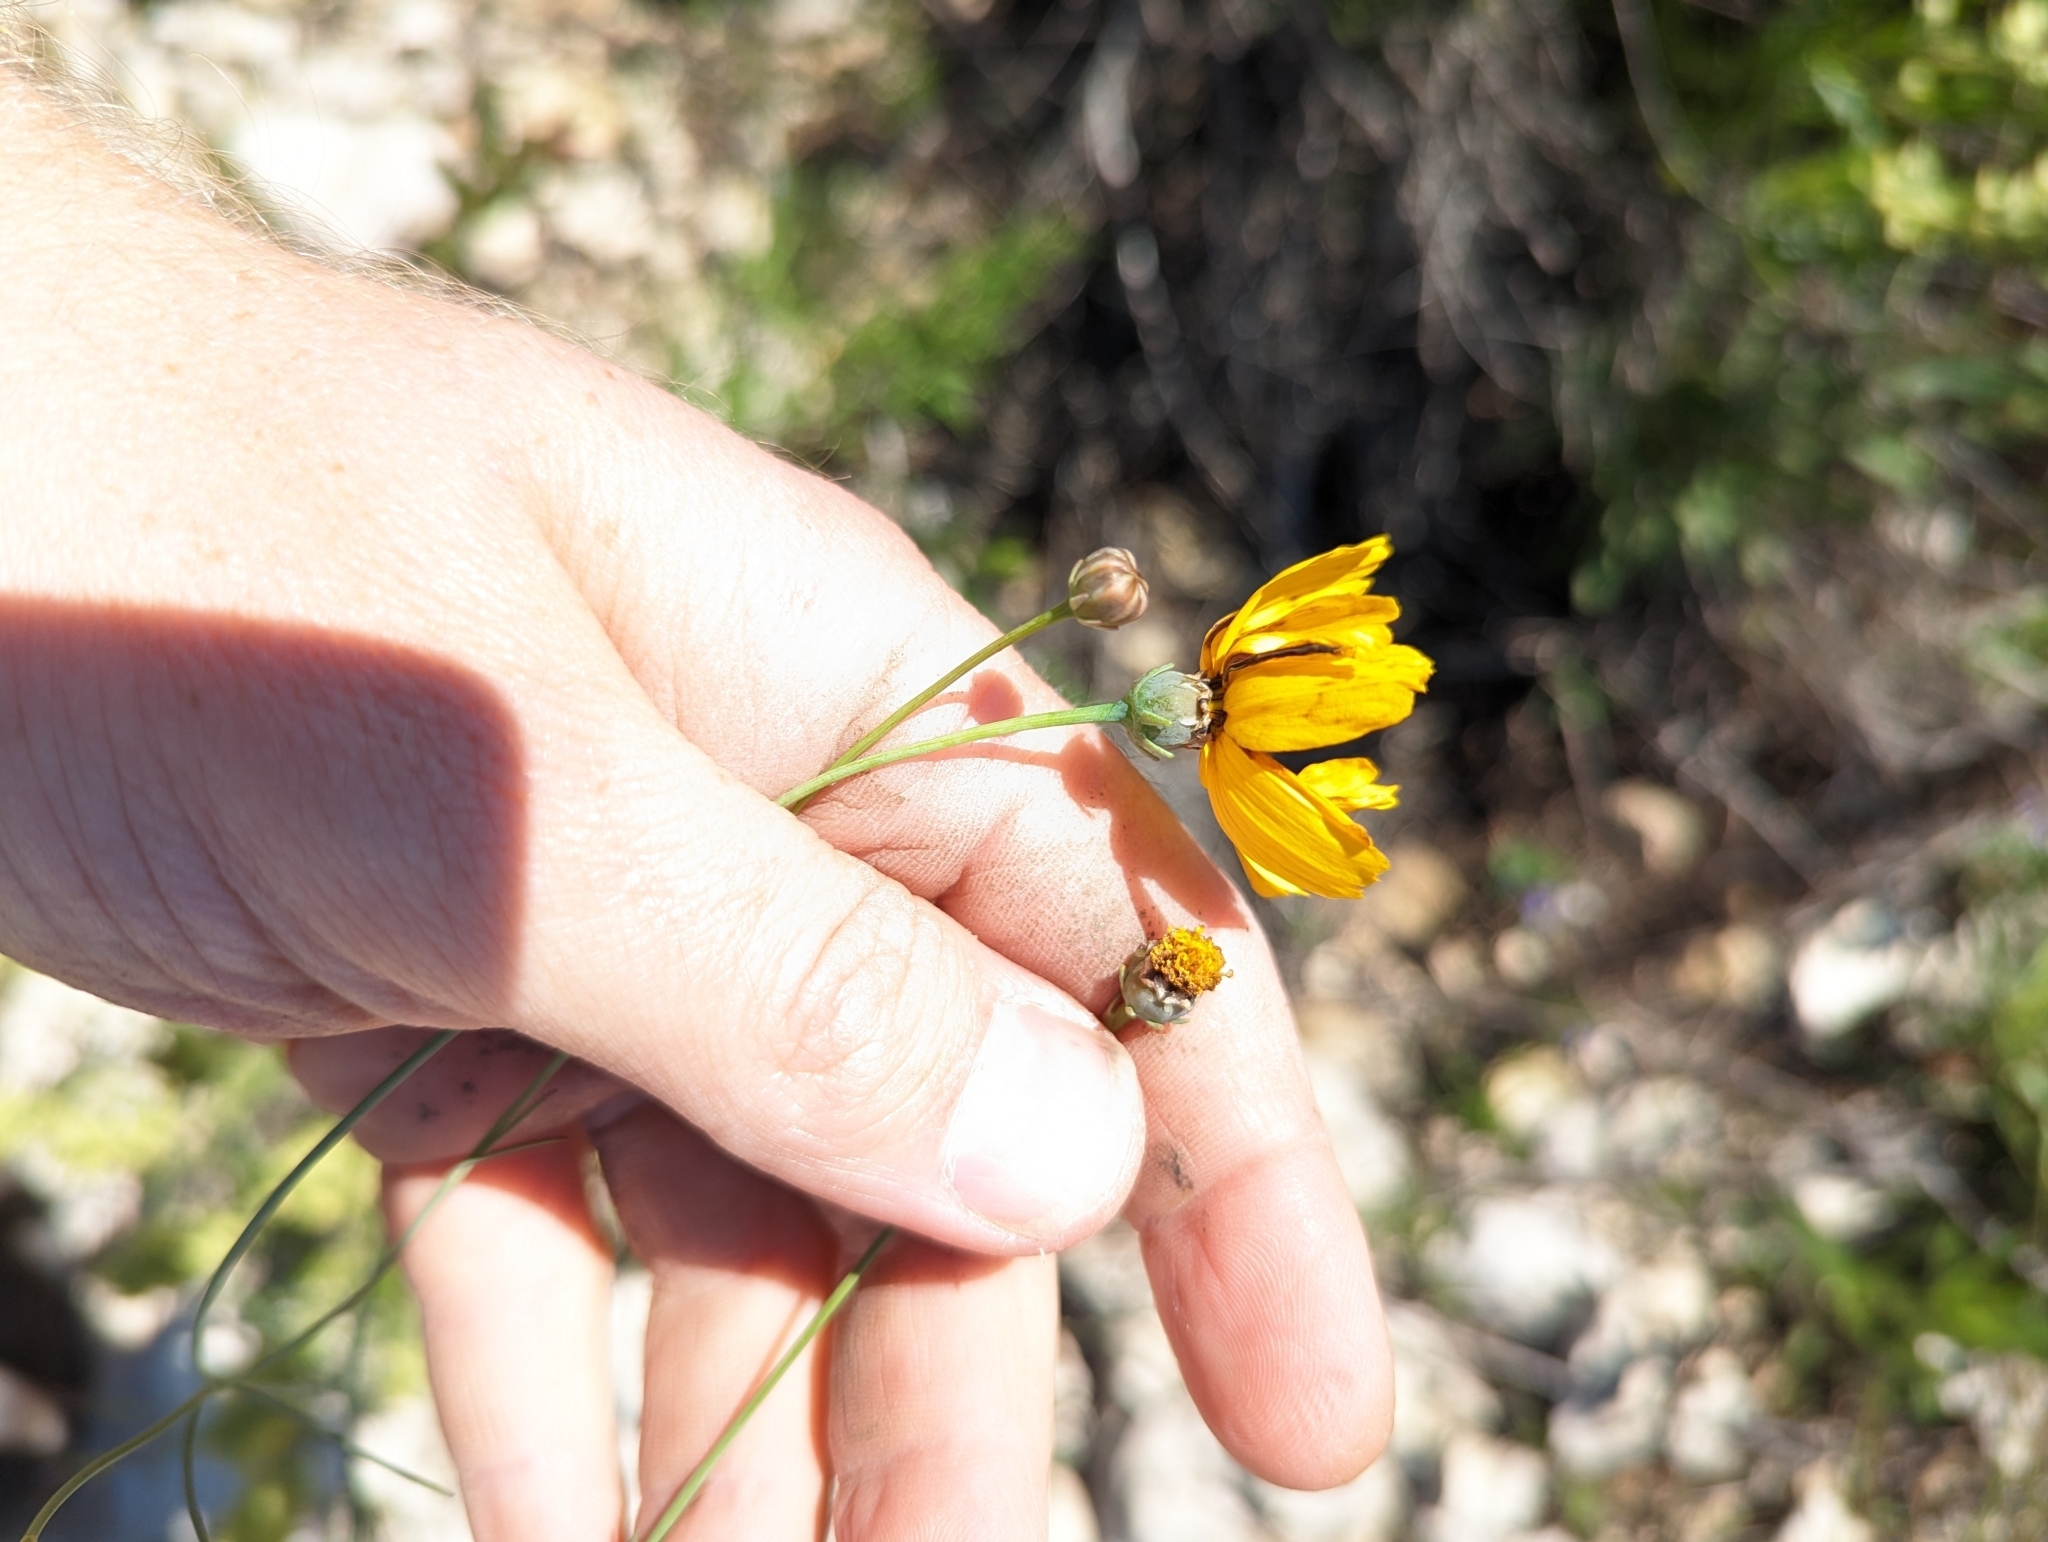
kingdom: Plantae
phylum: Tracheophyta
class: Magnoliopsida
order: Asterales
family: Asteraceae
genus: Thelesperma
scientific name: Thelesperma simplicifolium
